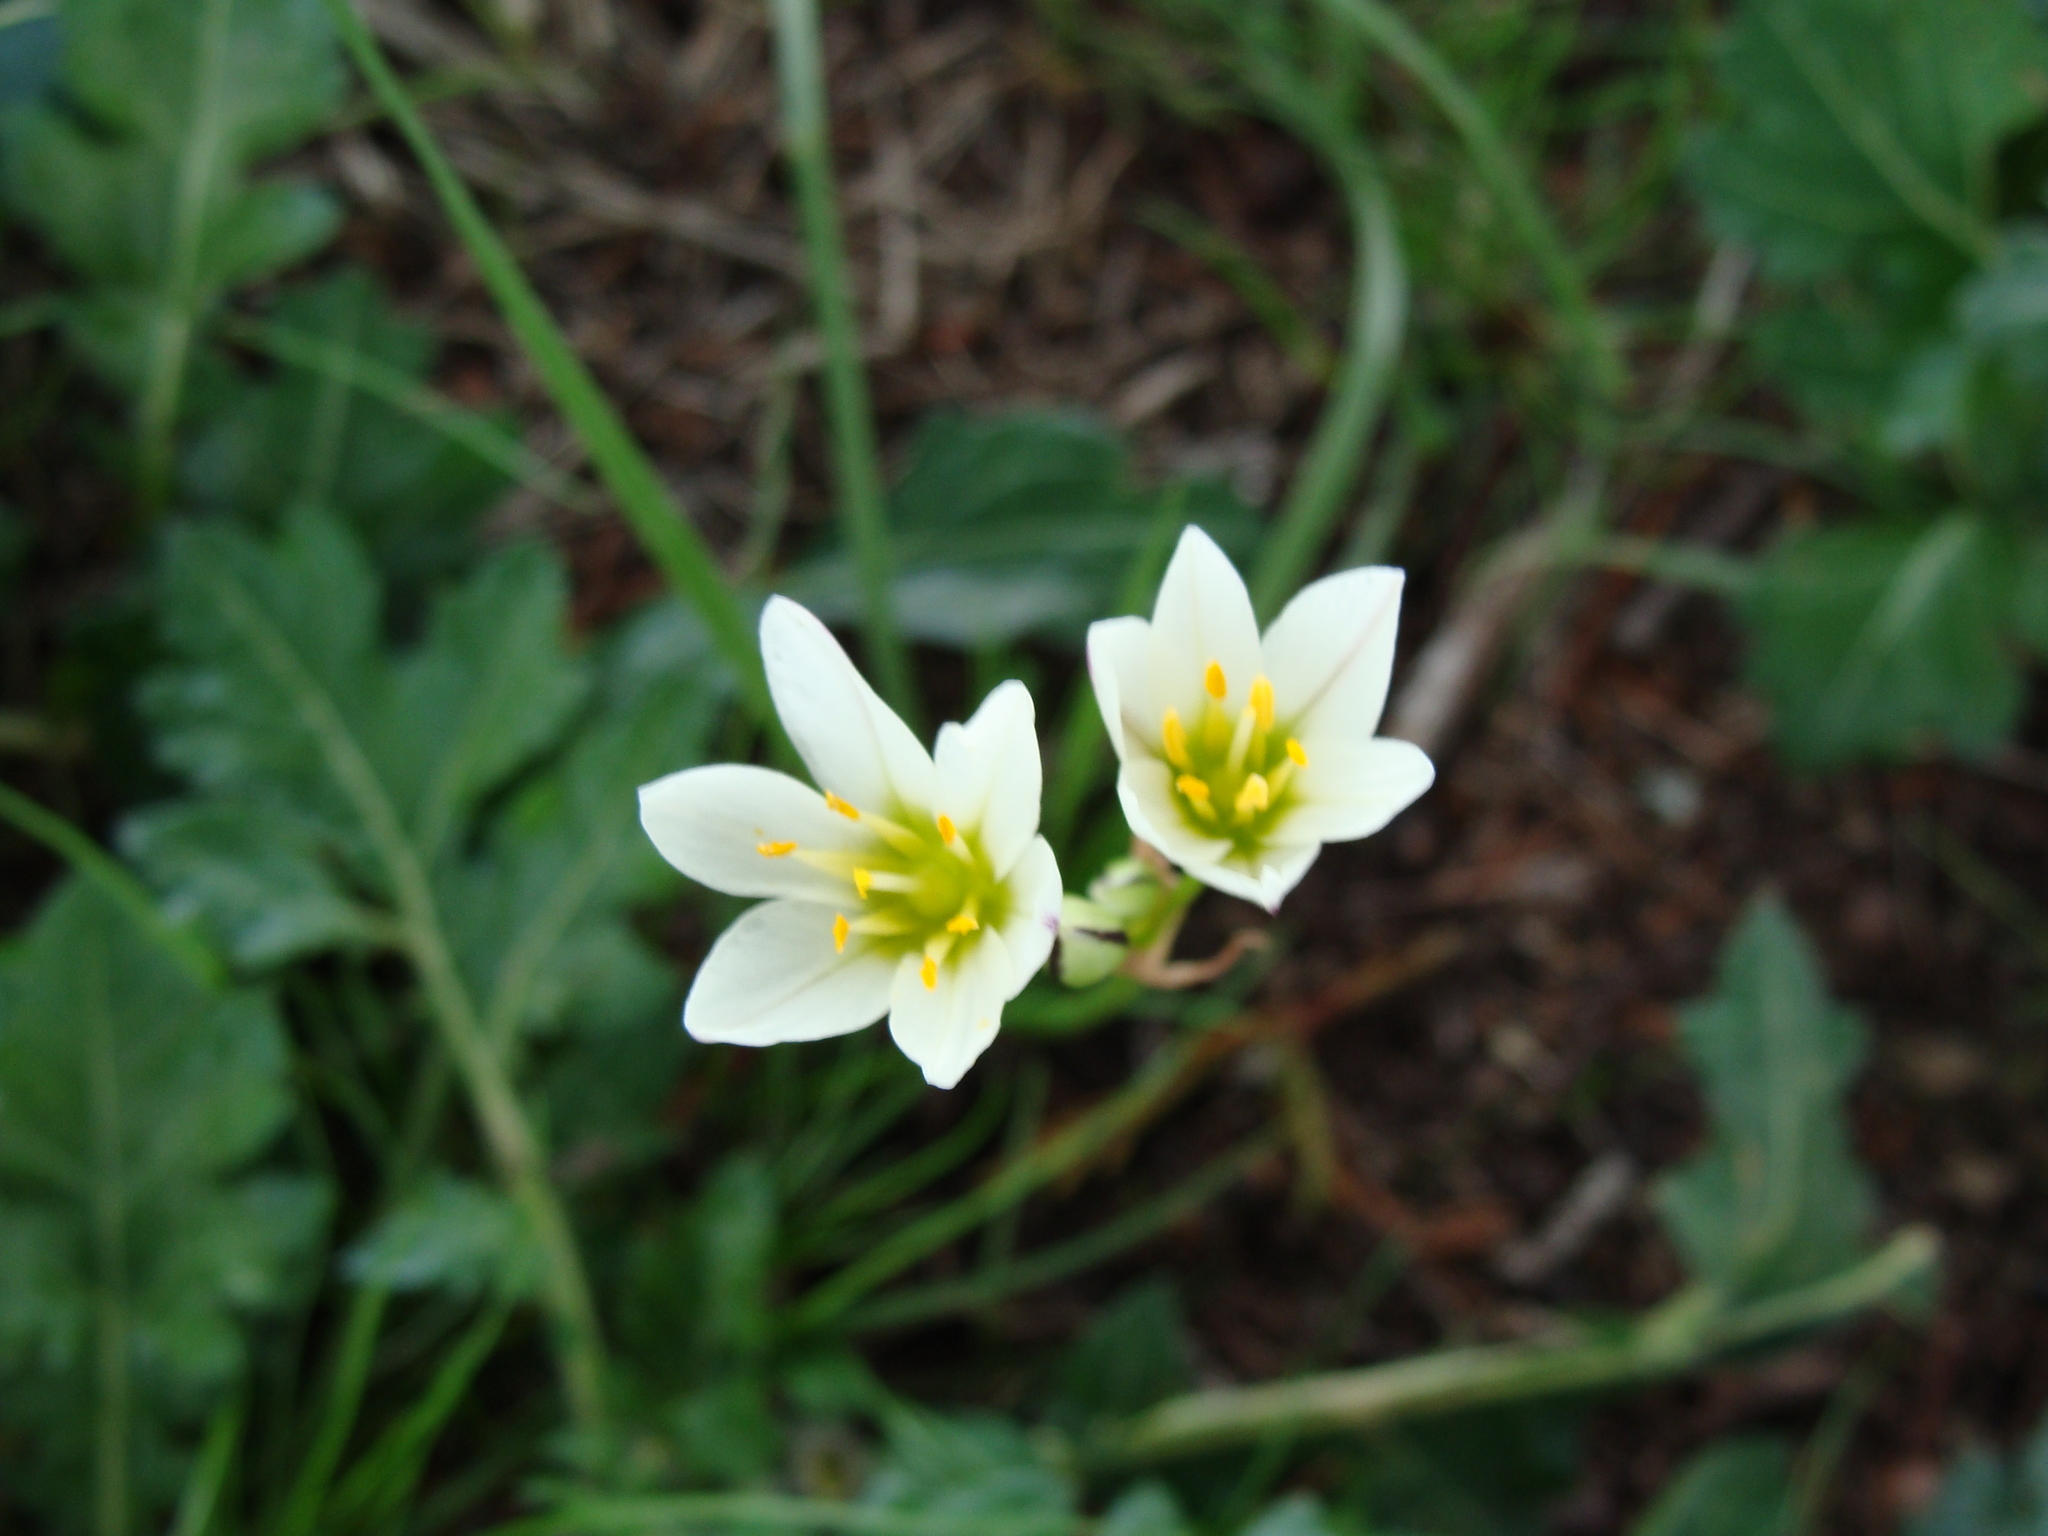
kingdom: Plantae
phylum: Tracheophyta
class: Liliopsida
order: Asparagales
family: Amaryllidaceae
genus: Nothoscordum
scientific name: Nothoscordum bivalve
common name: Crow-poison
